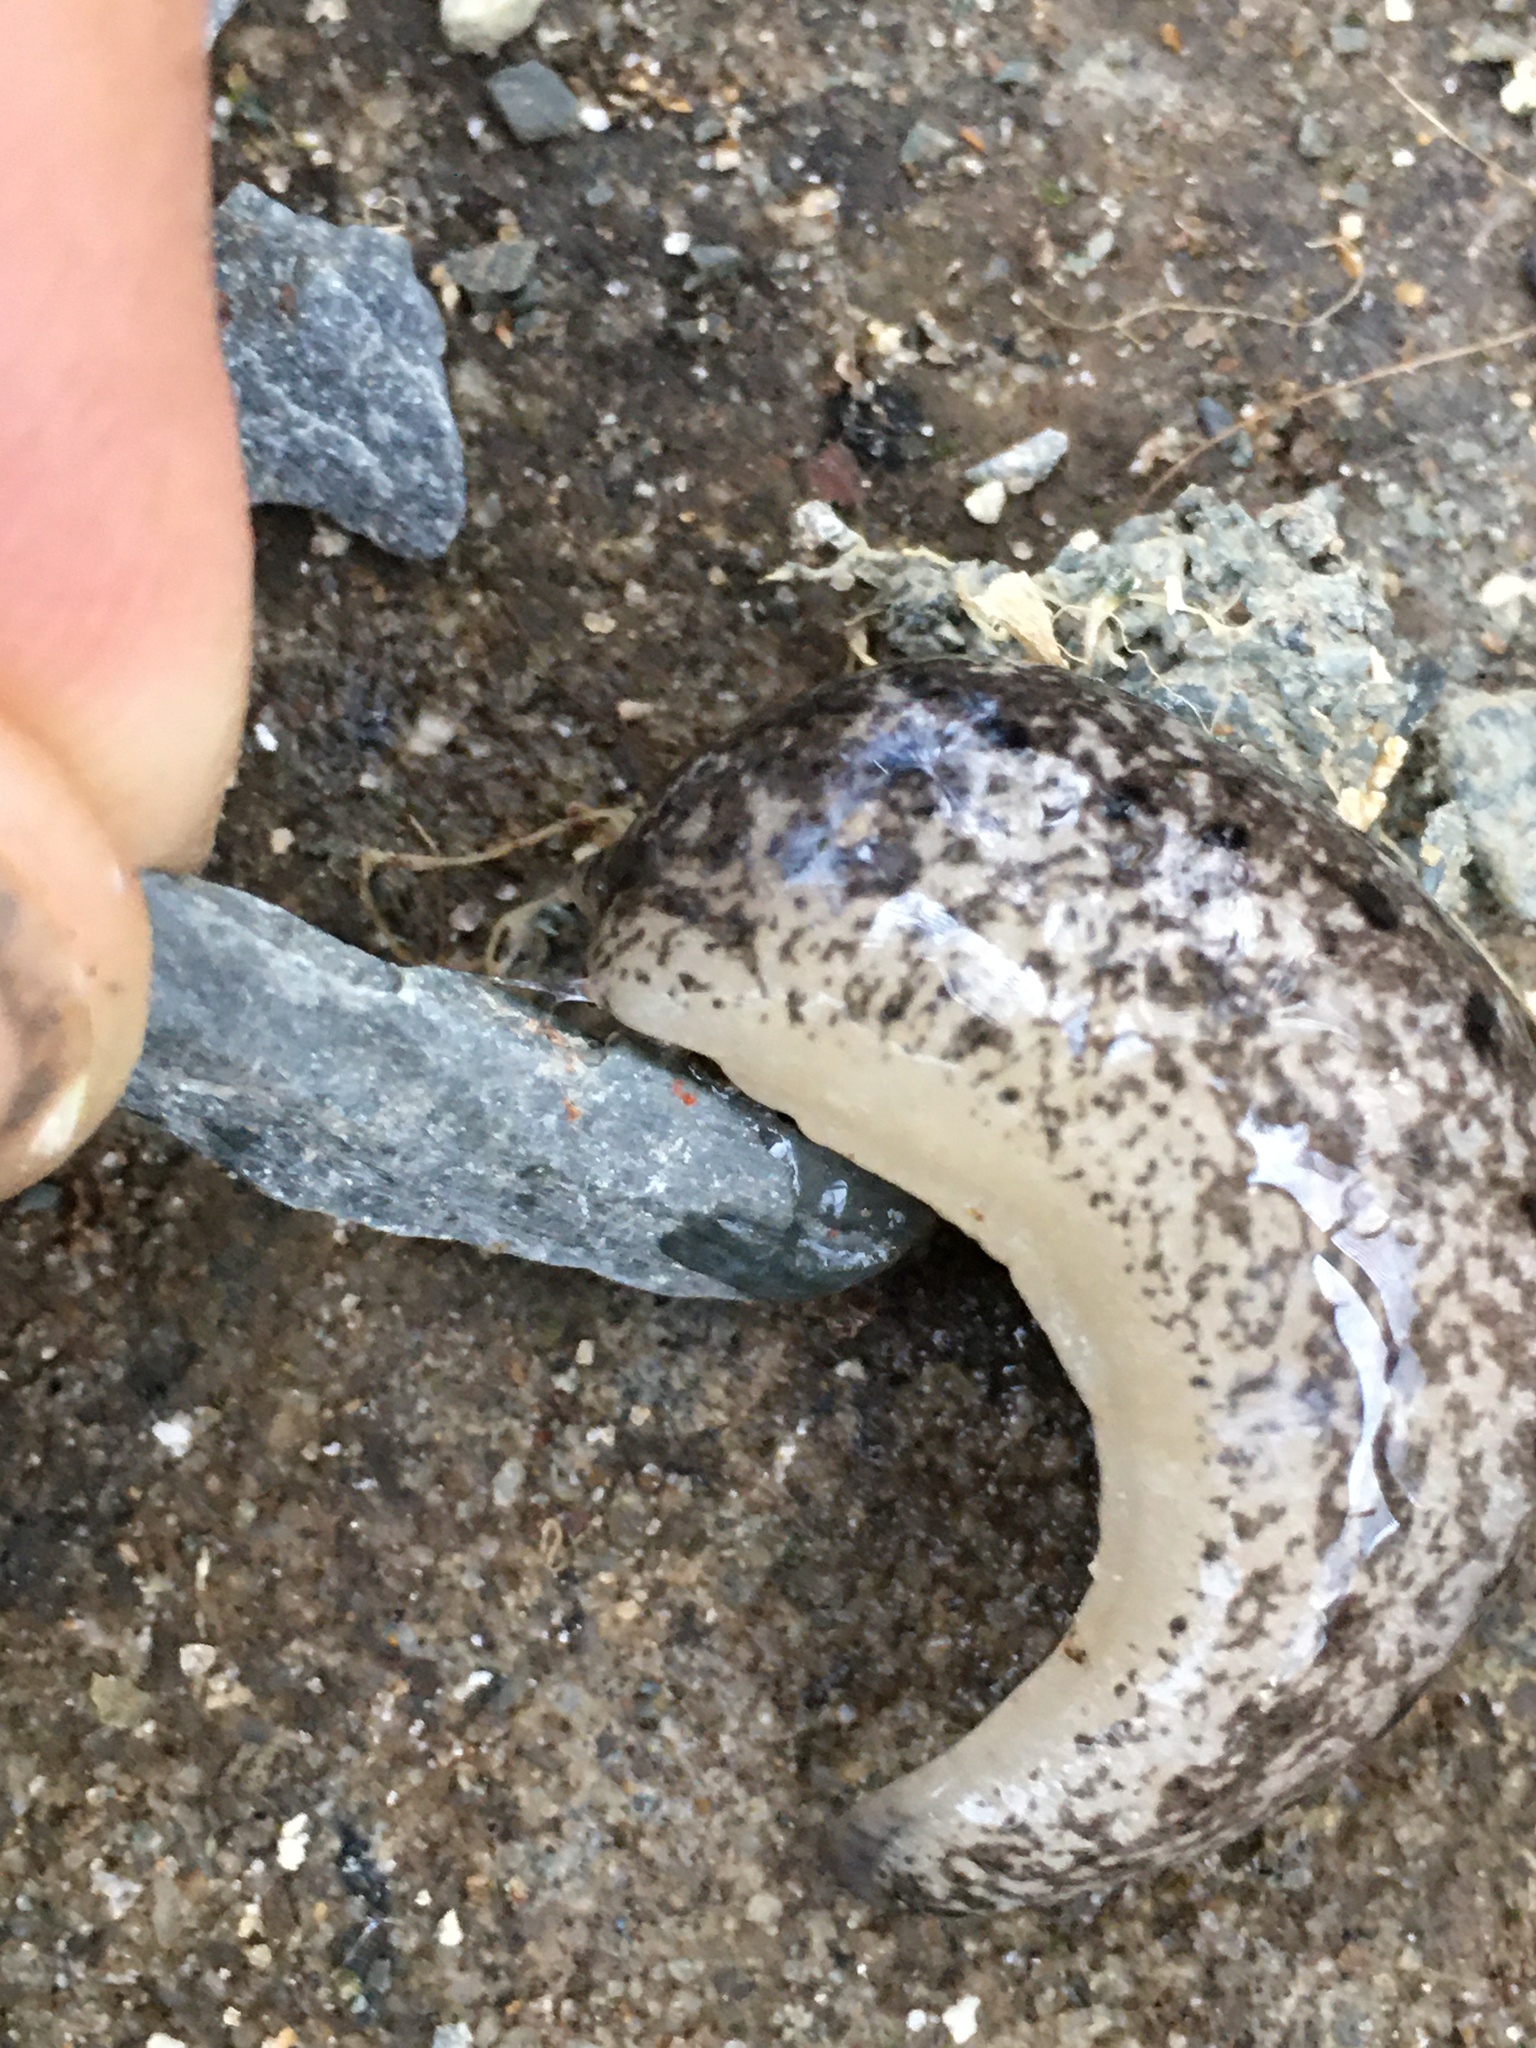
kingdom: Animalia
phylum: Mollusca
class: Gastropoda
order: Stylommatophora
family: Philomycidae
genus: Philomycus
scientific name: Philomycus carolinianus
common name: Carolina mantleslug
